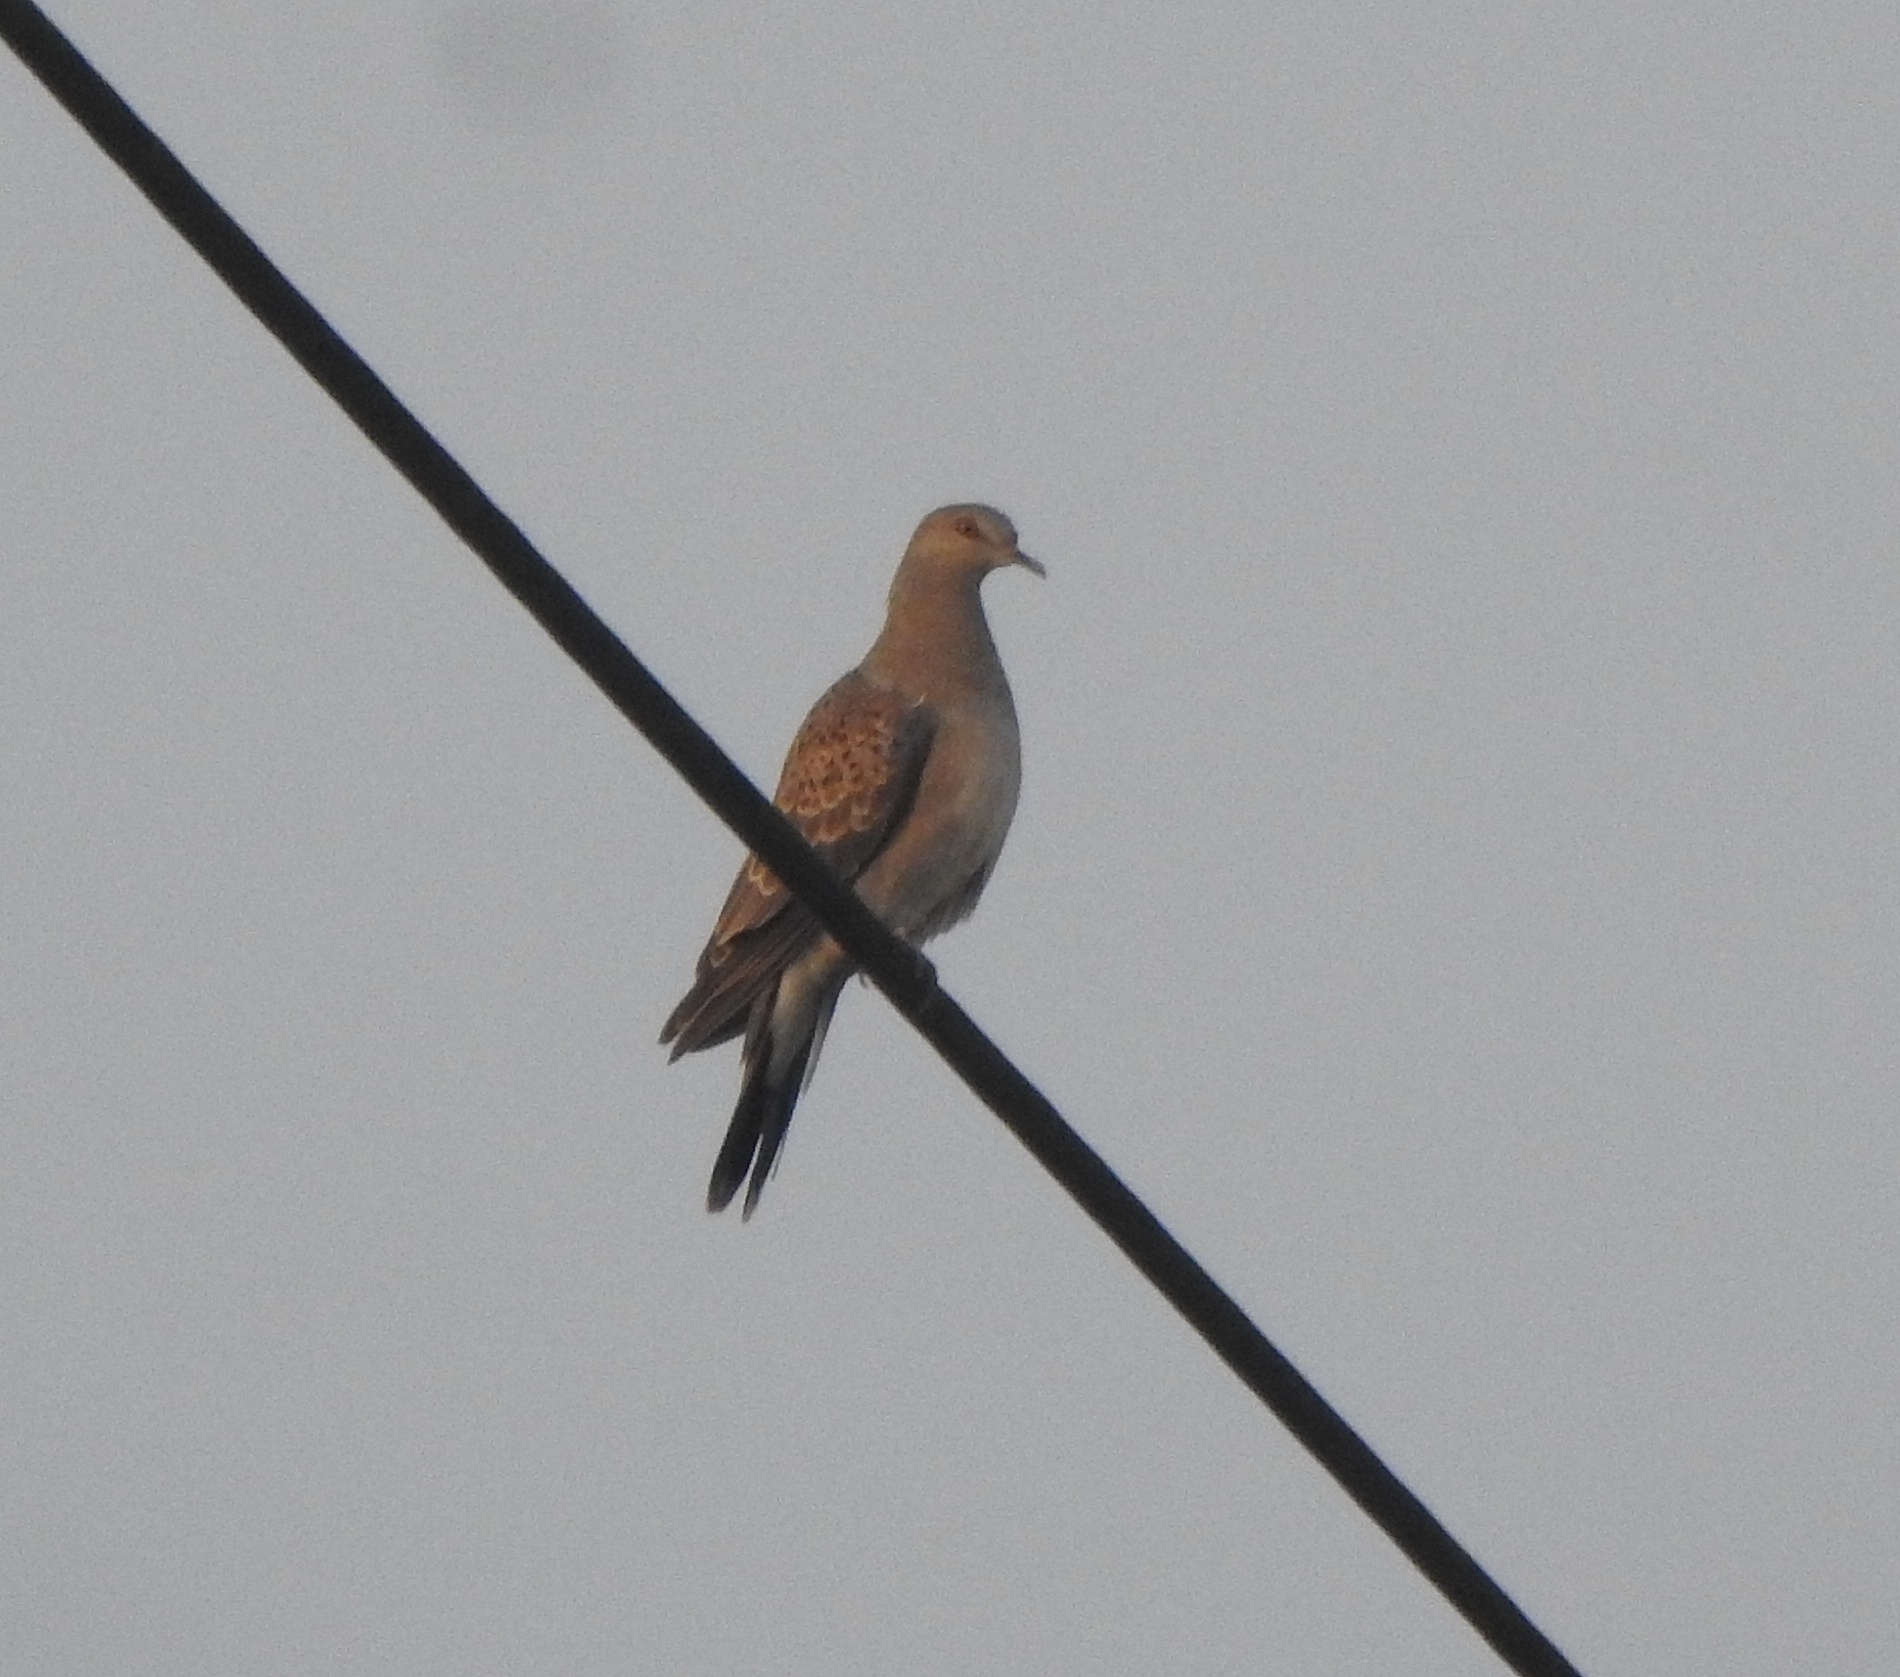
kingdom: Animalia
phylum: Chordata
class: Aves
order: Columbiformes
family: Columbidae
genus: Streptopelia
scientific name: Streptopelia orientalis
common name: Oriental turtle dove
